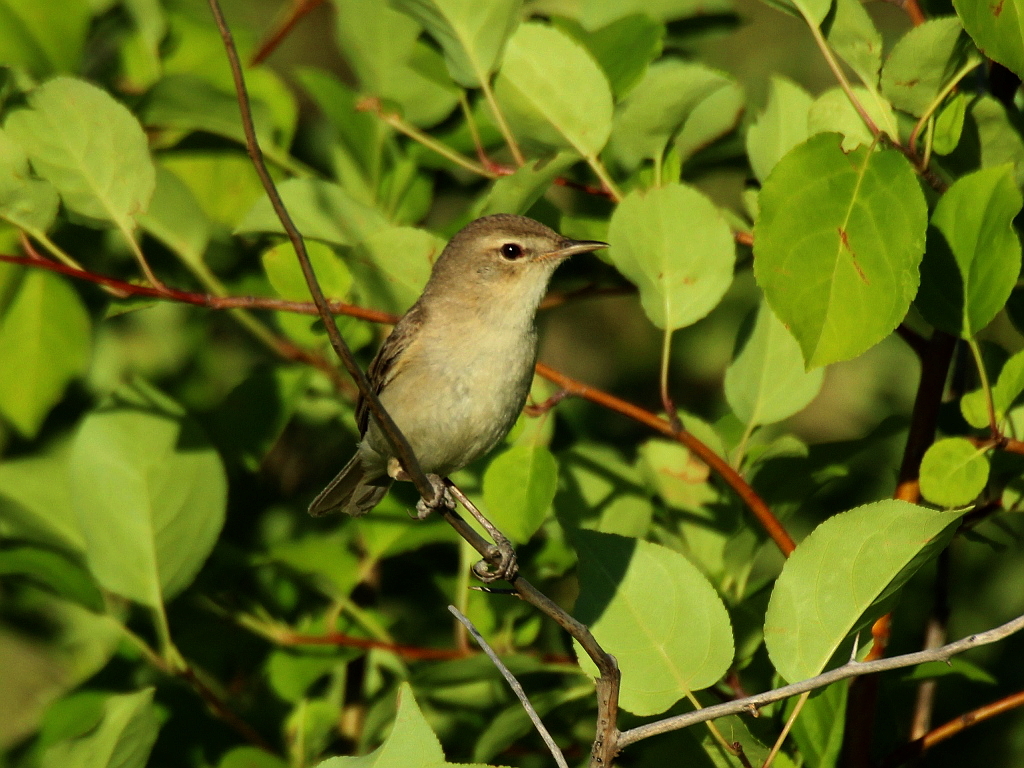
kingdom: Animalia
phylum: Chordata
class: Aves
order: Passeriformes
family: Acrocephalidae
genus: Iduna
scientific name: Iduna caligata
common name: Booted warbler
